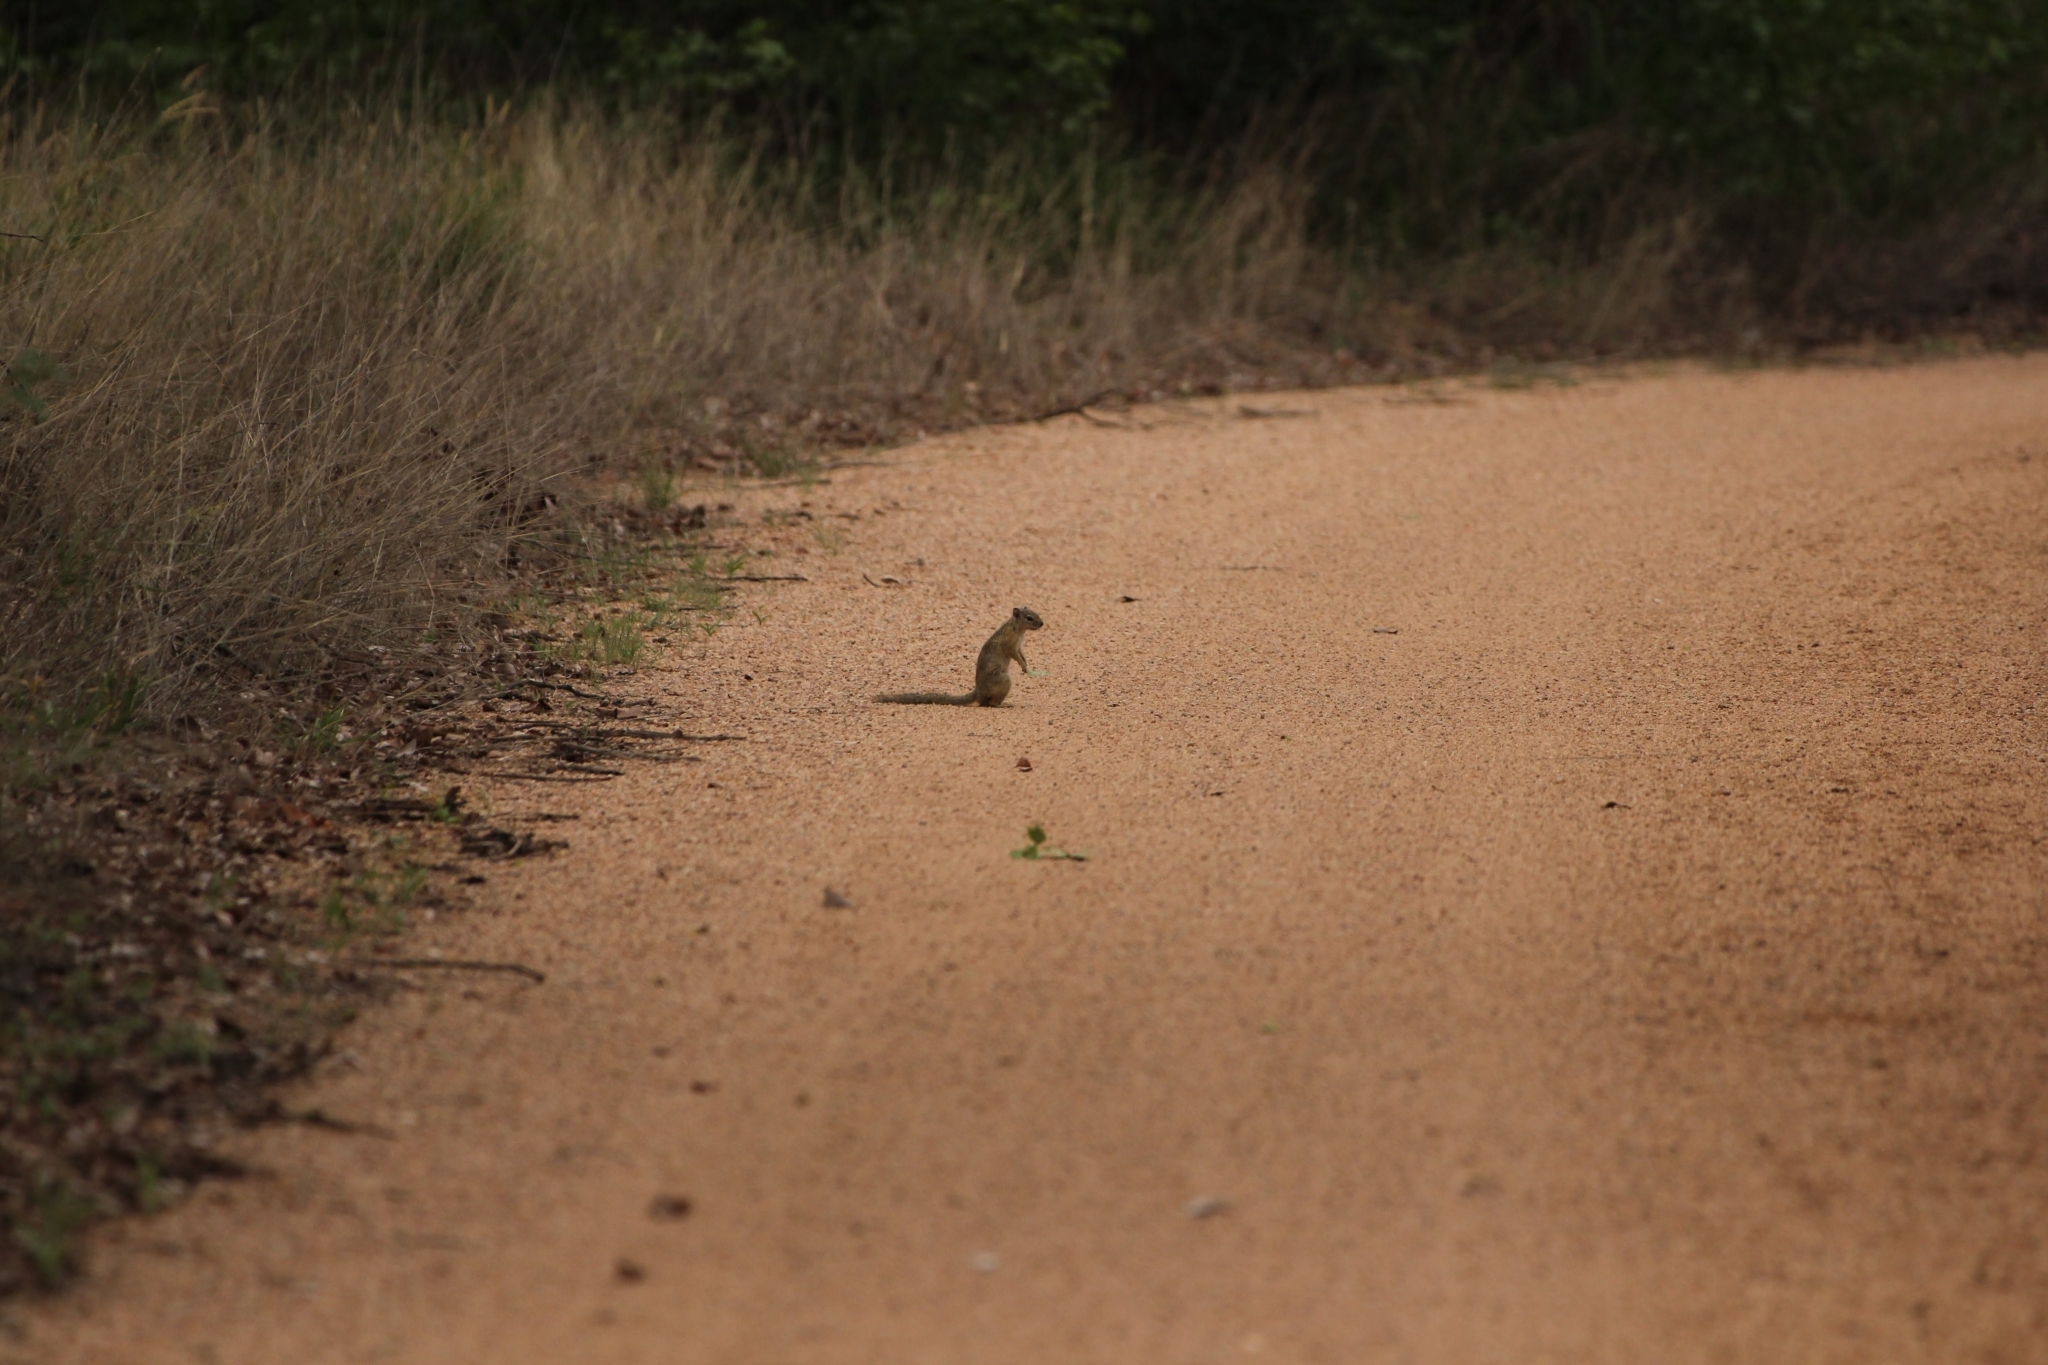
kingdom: Animalia
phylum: Chordata
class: Mammalia
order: Rodentia
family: Sciuridae
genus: Paraxerus
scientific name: Paraxerus cepapi
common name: Smith's bush squirrel
